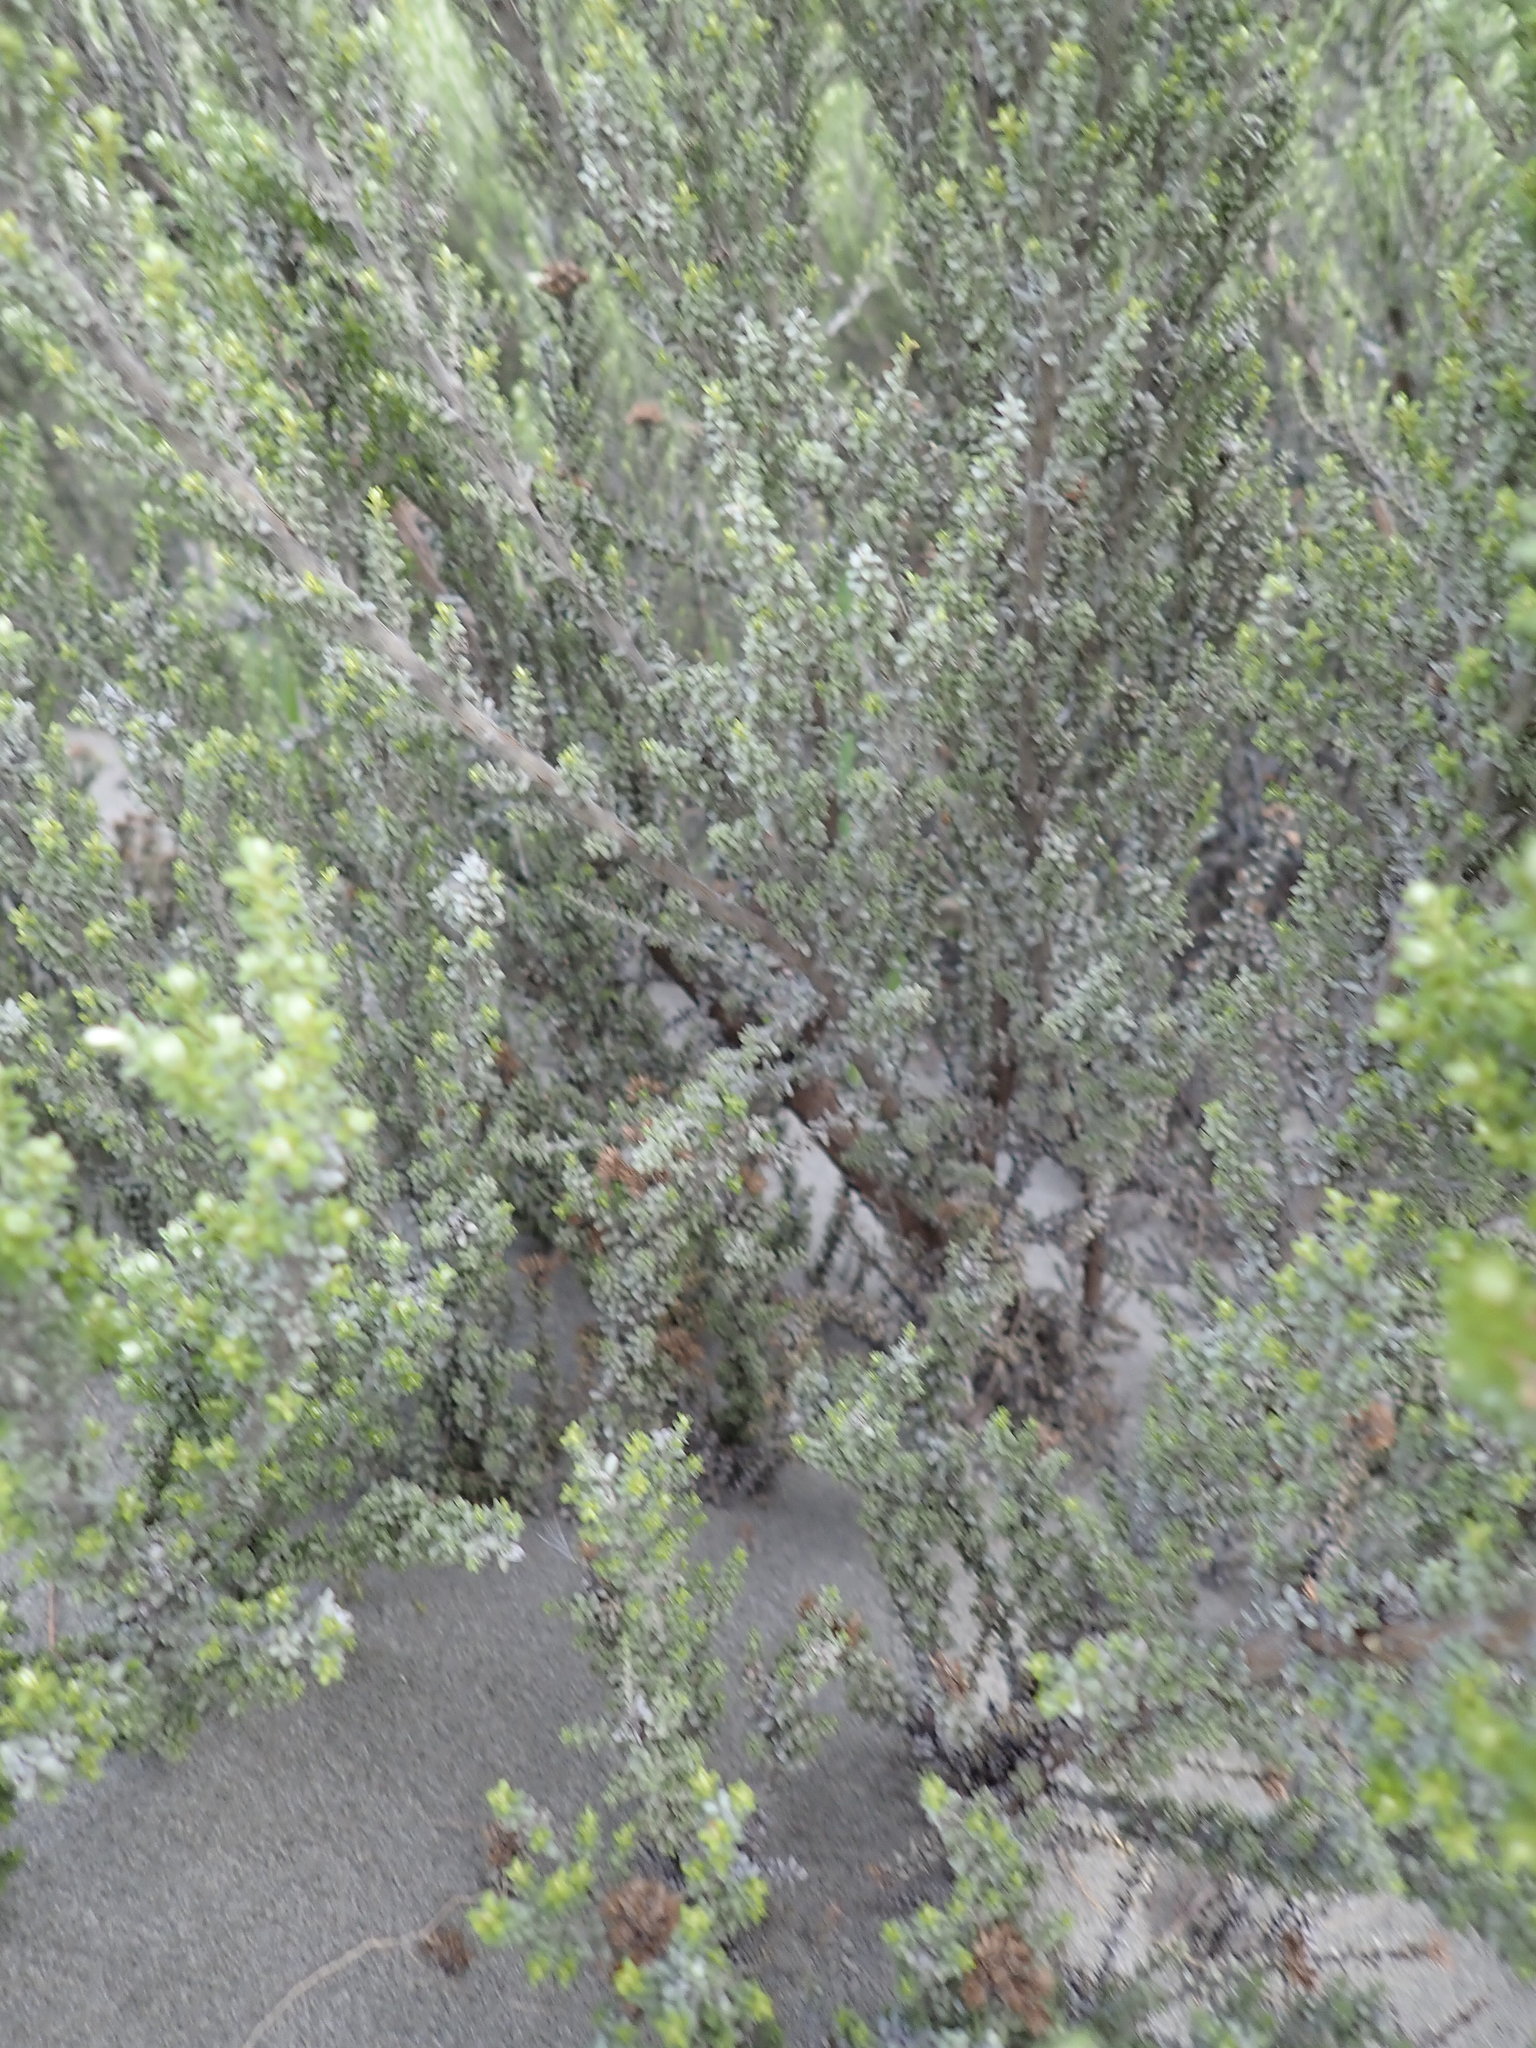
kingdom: Plantae
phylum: Tracheophyta
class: Magnoliopsida
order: Asterales
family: Asteraceae
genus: Ozothamnus
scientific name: Ozothamnus leptophyllus
